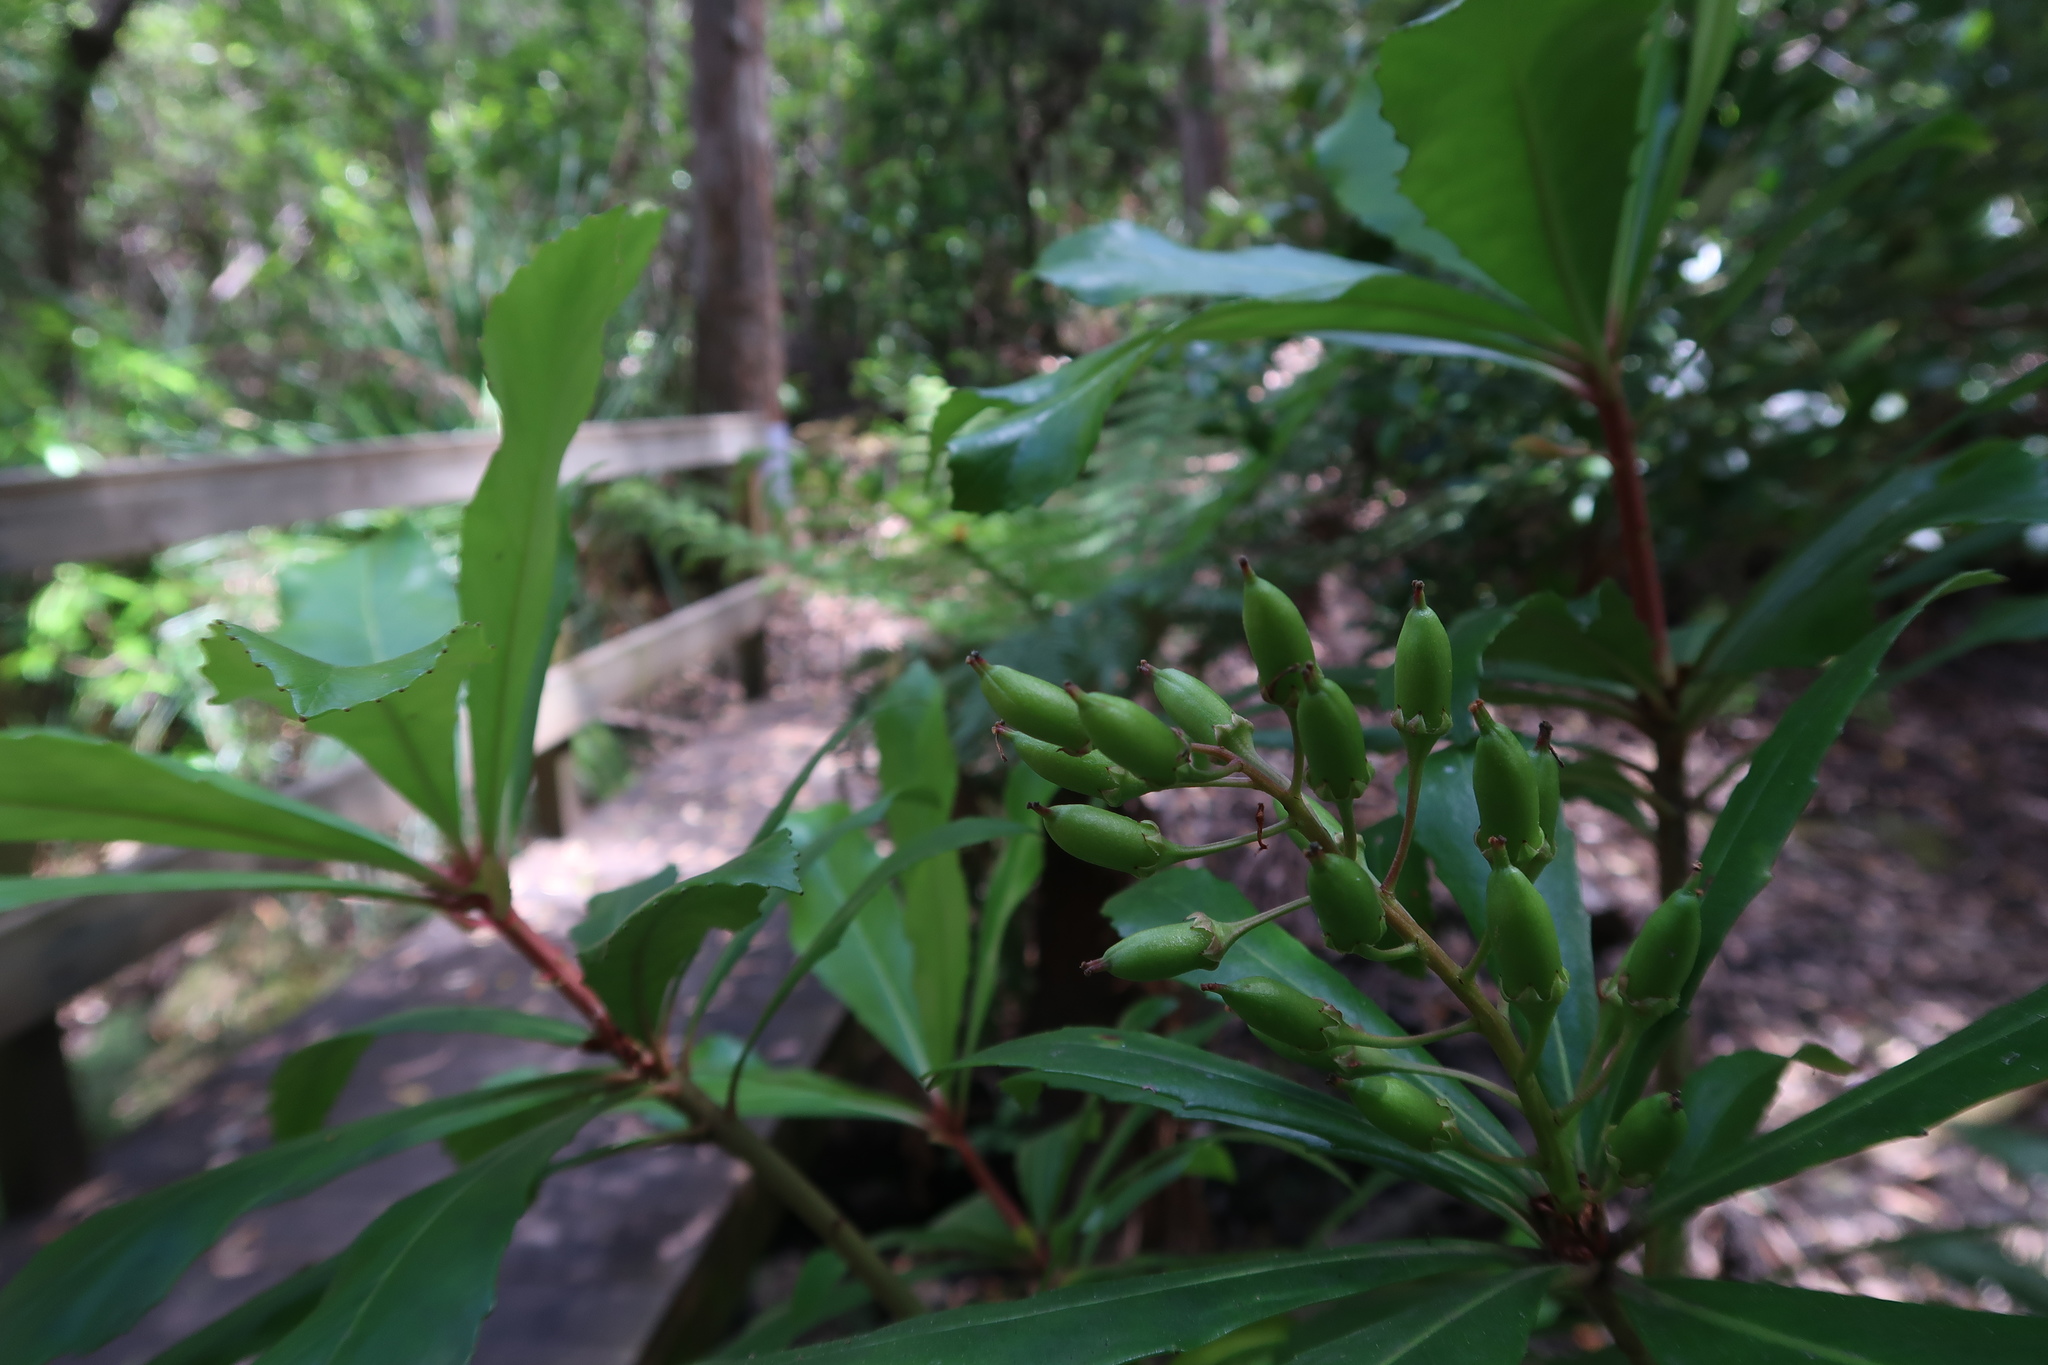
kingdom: Plantae
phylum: Tracheophyta
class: Magnoliopsida
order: Escalloniales
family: Escalloniaceae
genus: Anopterus
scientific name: Anopterus glandulosus
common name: Tasmanian-laurel
